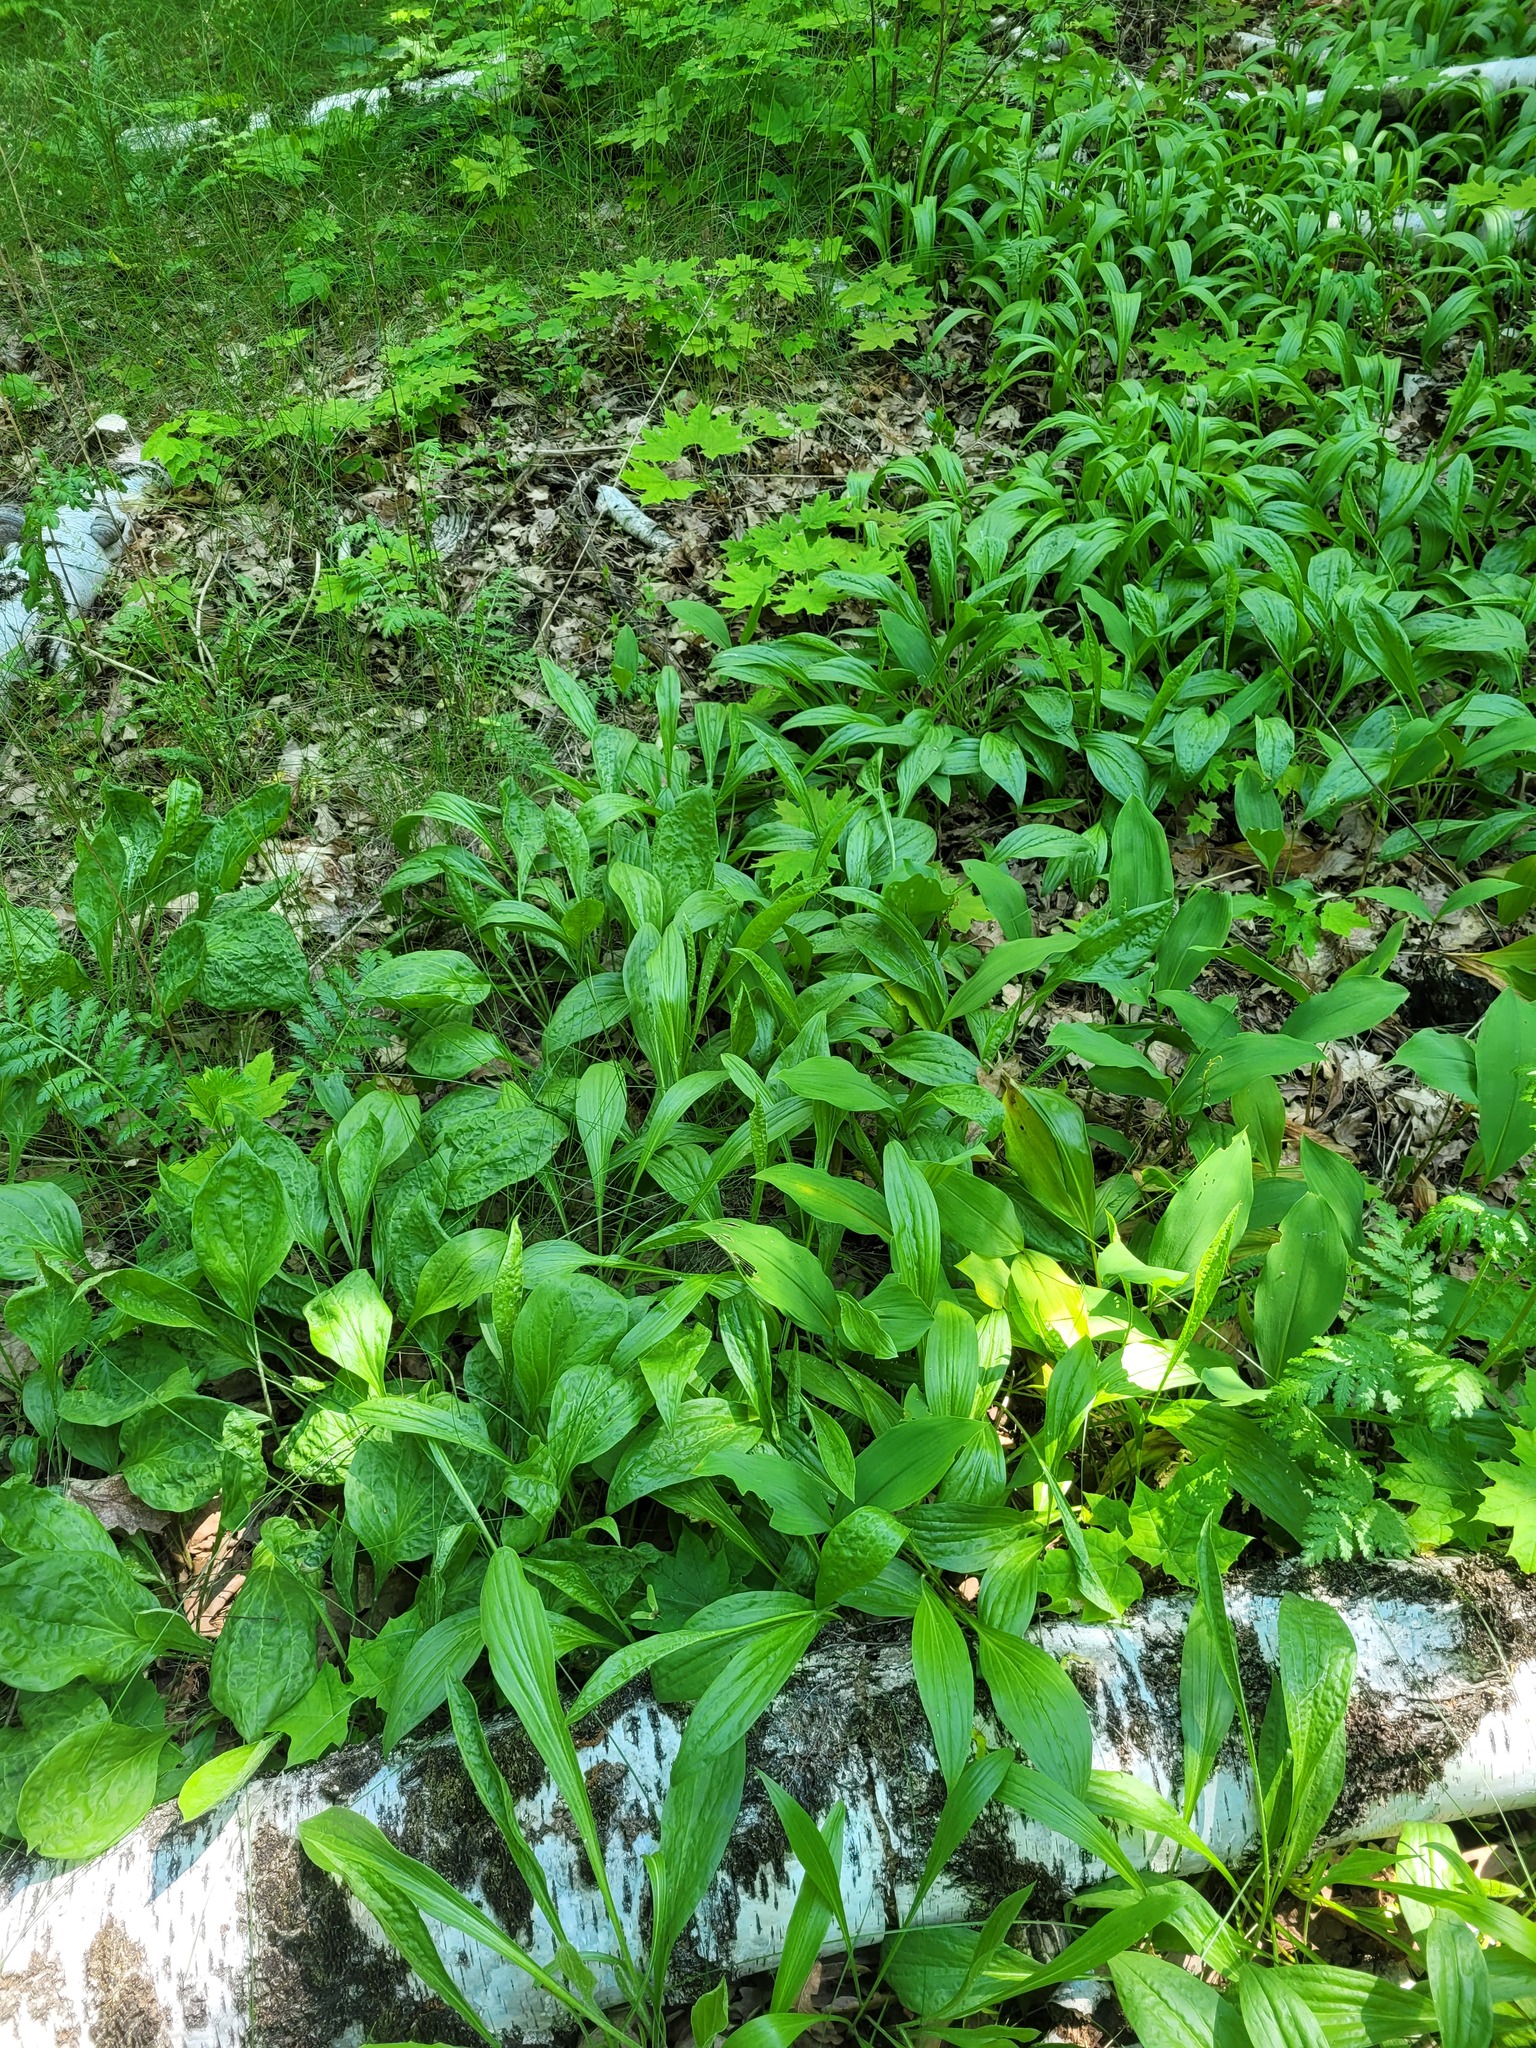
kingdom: Plantae
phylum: Tracheophyta
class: Magnoliopsida
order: Asterales
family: Asteraceae
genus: Scorzonera
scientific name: Scorzonera humilis
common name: Viper's-grass
